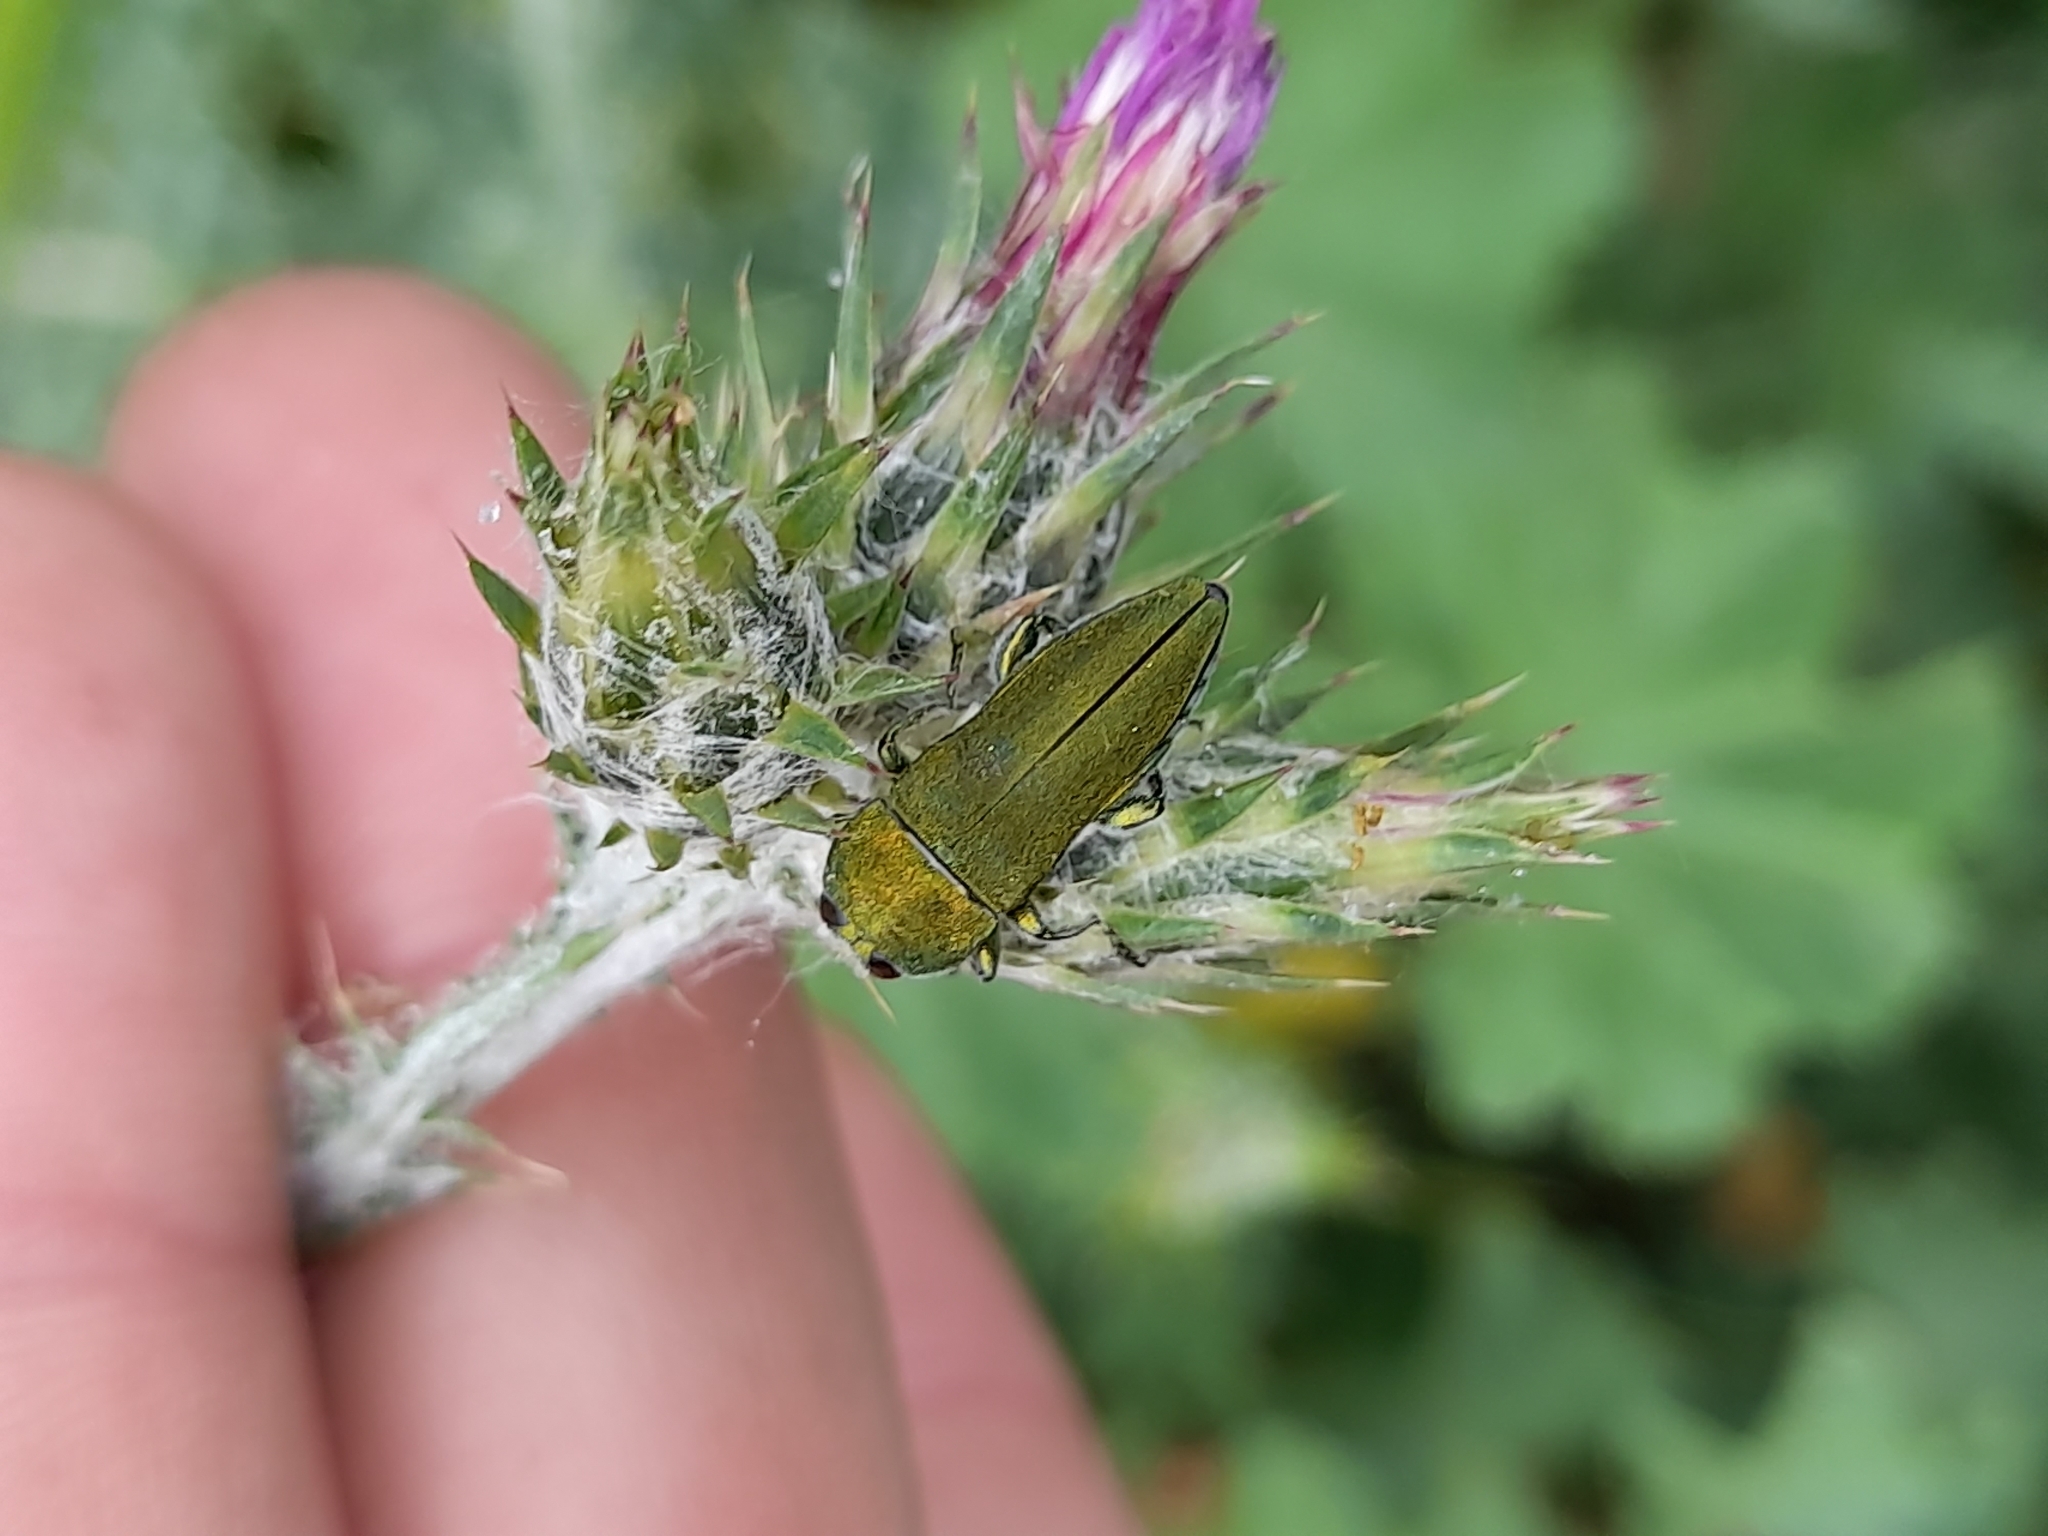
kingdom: Animalia
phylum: Arthropoda
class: Insecta
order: Coleoptera
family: Buprestidae
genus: Anthaxia
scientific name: Anthaxia hungarica
